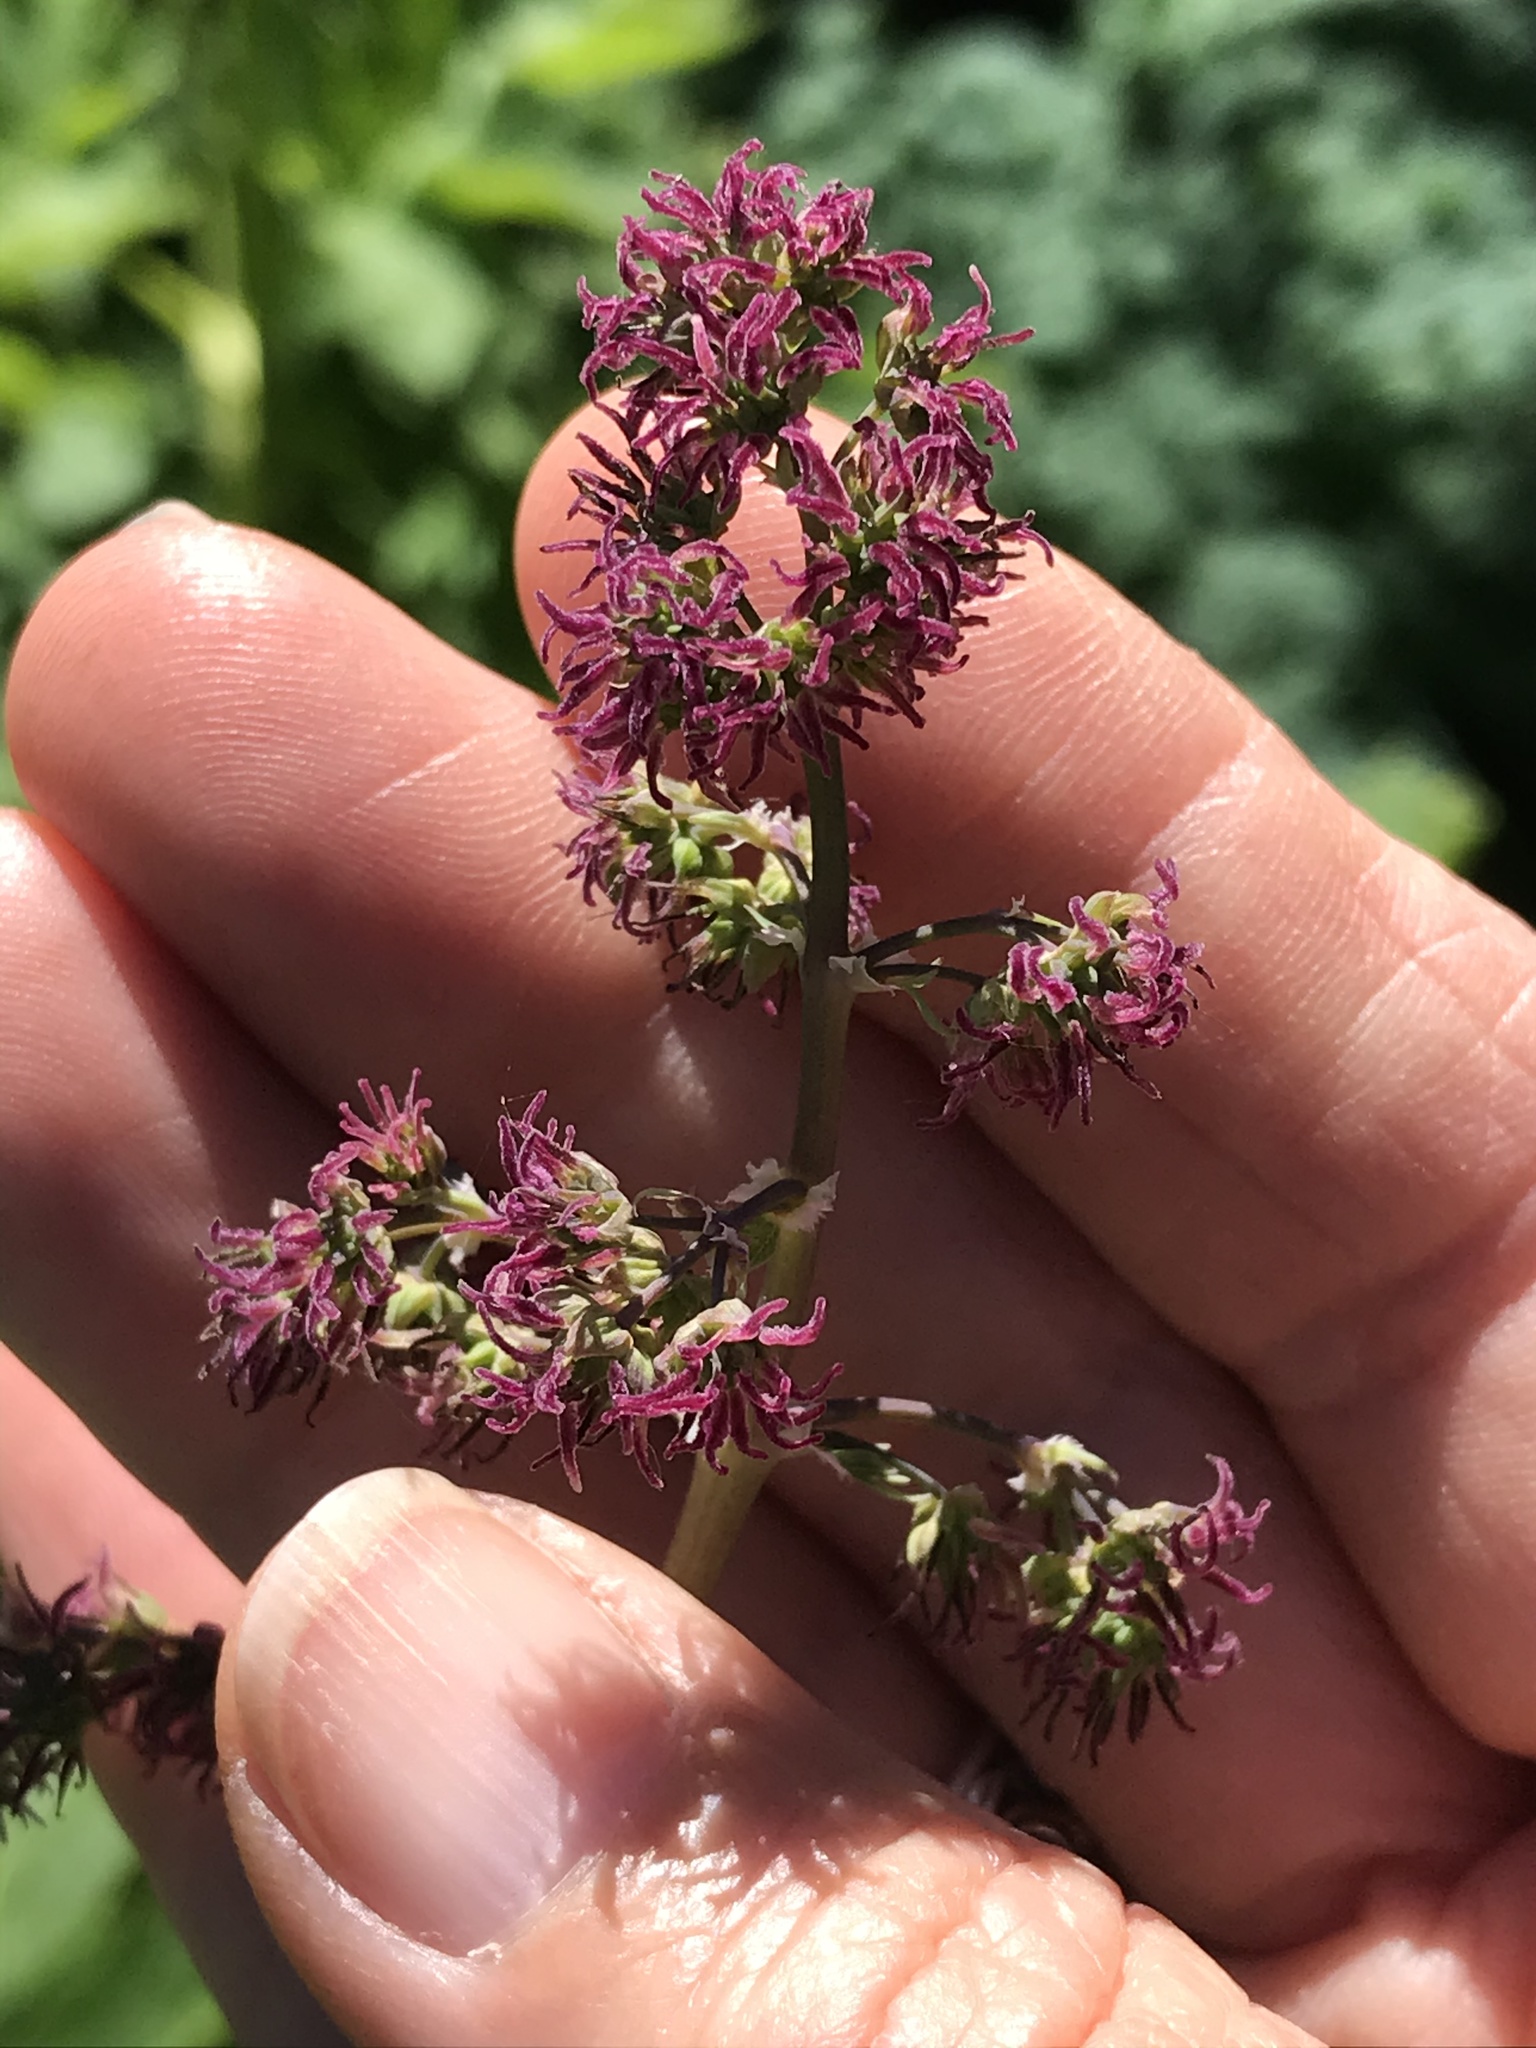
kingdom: Plantae
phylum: Tracheophyta
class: Magnoliopsida
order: Ranunculales
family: Ranunculaceae
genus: Thalictrum
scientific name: Thalictrum fendleri
